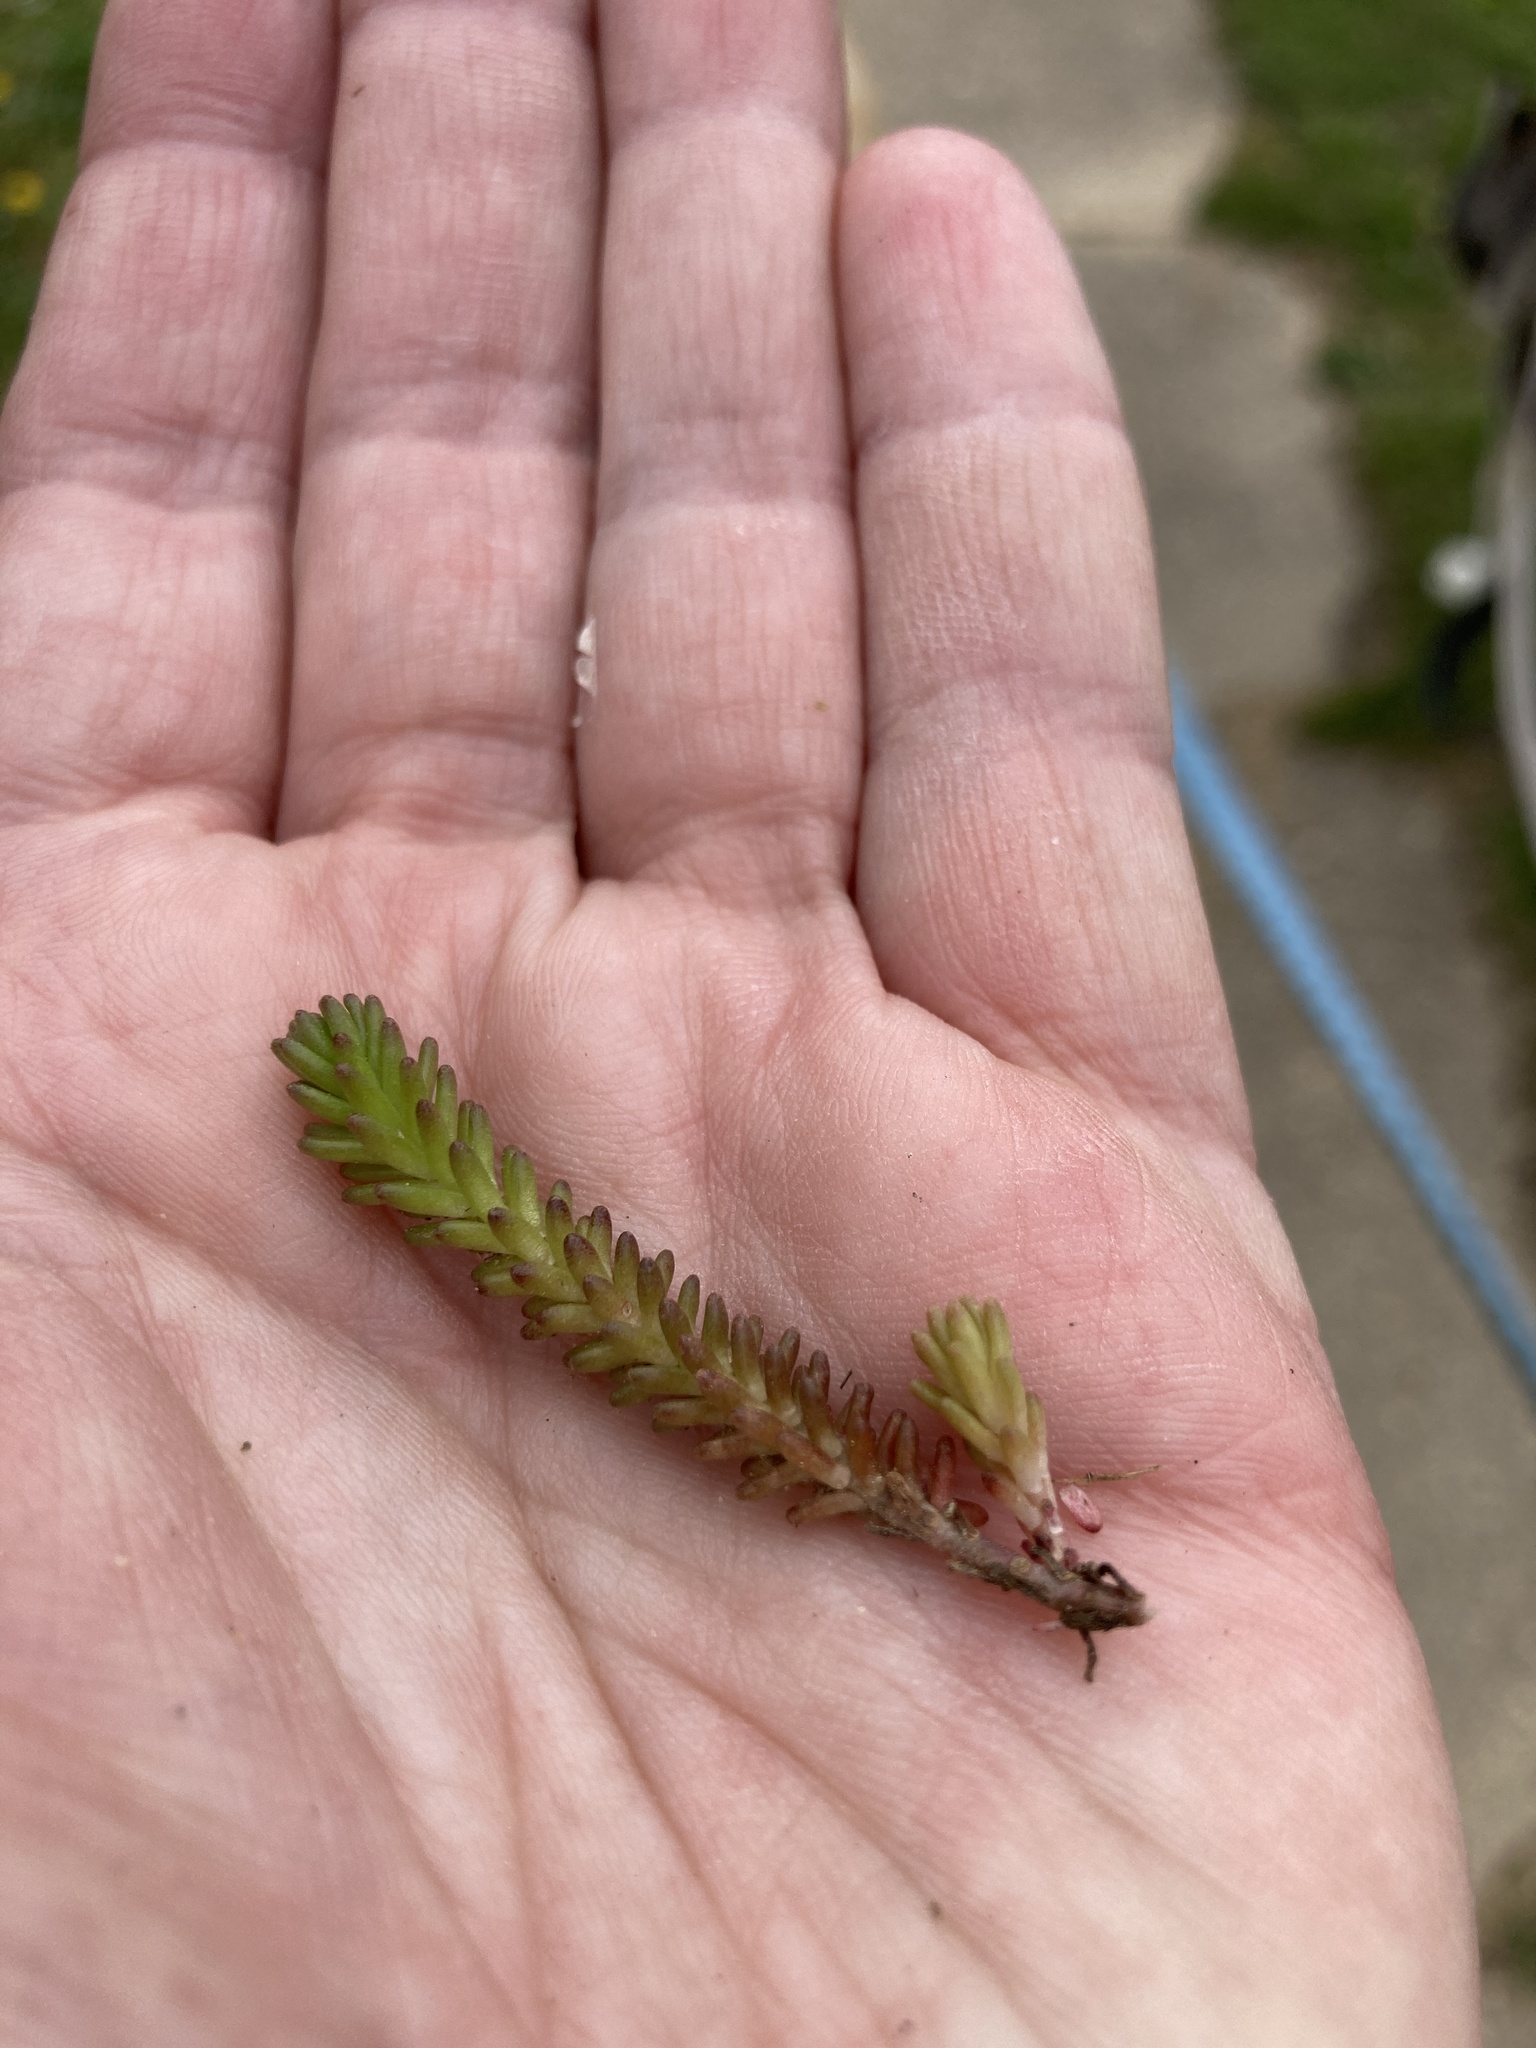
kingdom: Plantae
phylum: Tracheophyta
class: Magnoliopsida
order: Saxifragales
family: Crassulaceae
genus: Sedum
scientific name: Sedum sexangulare
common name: Tasteless stonecrop
